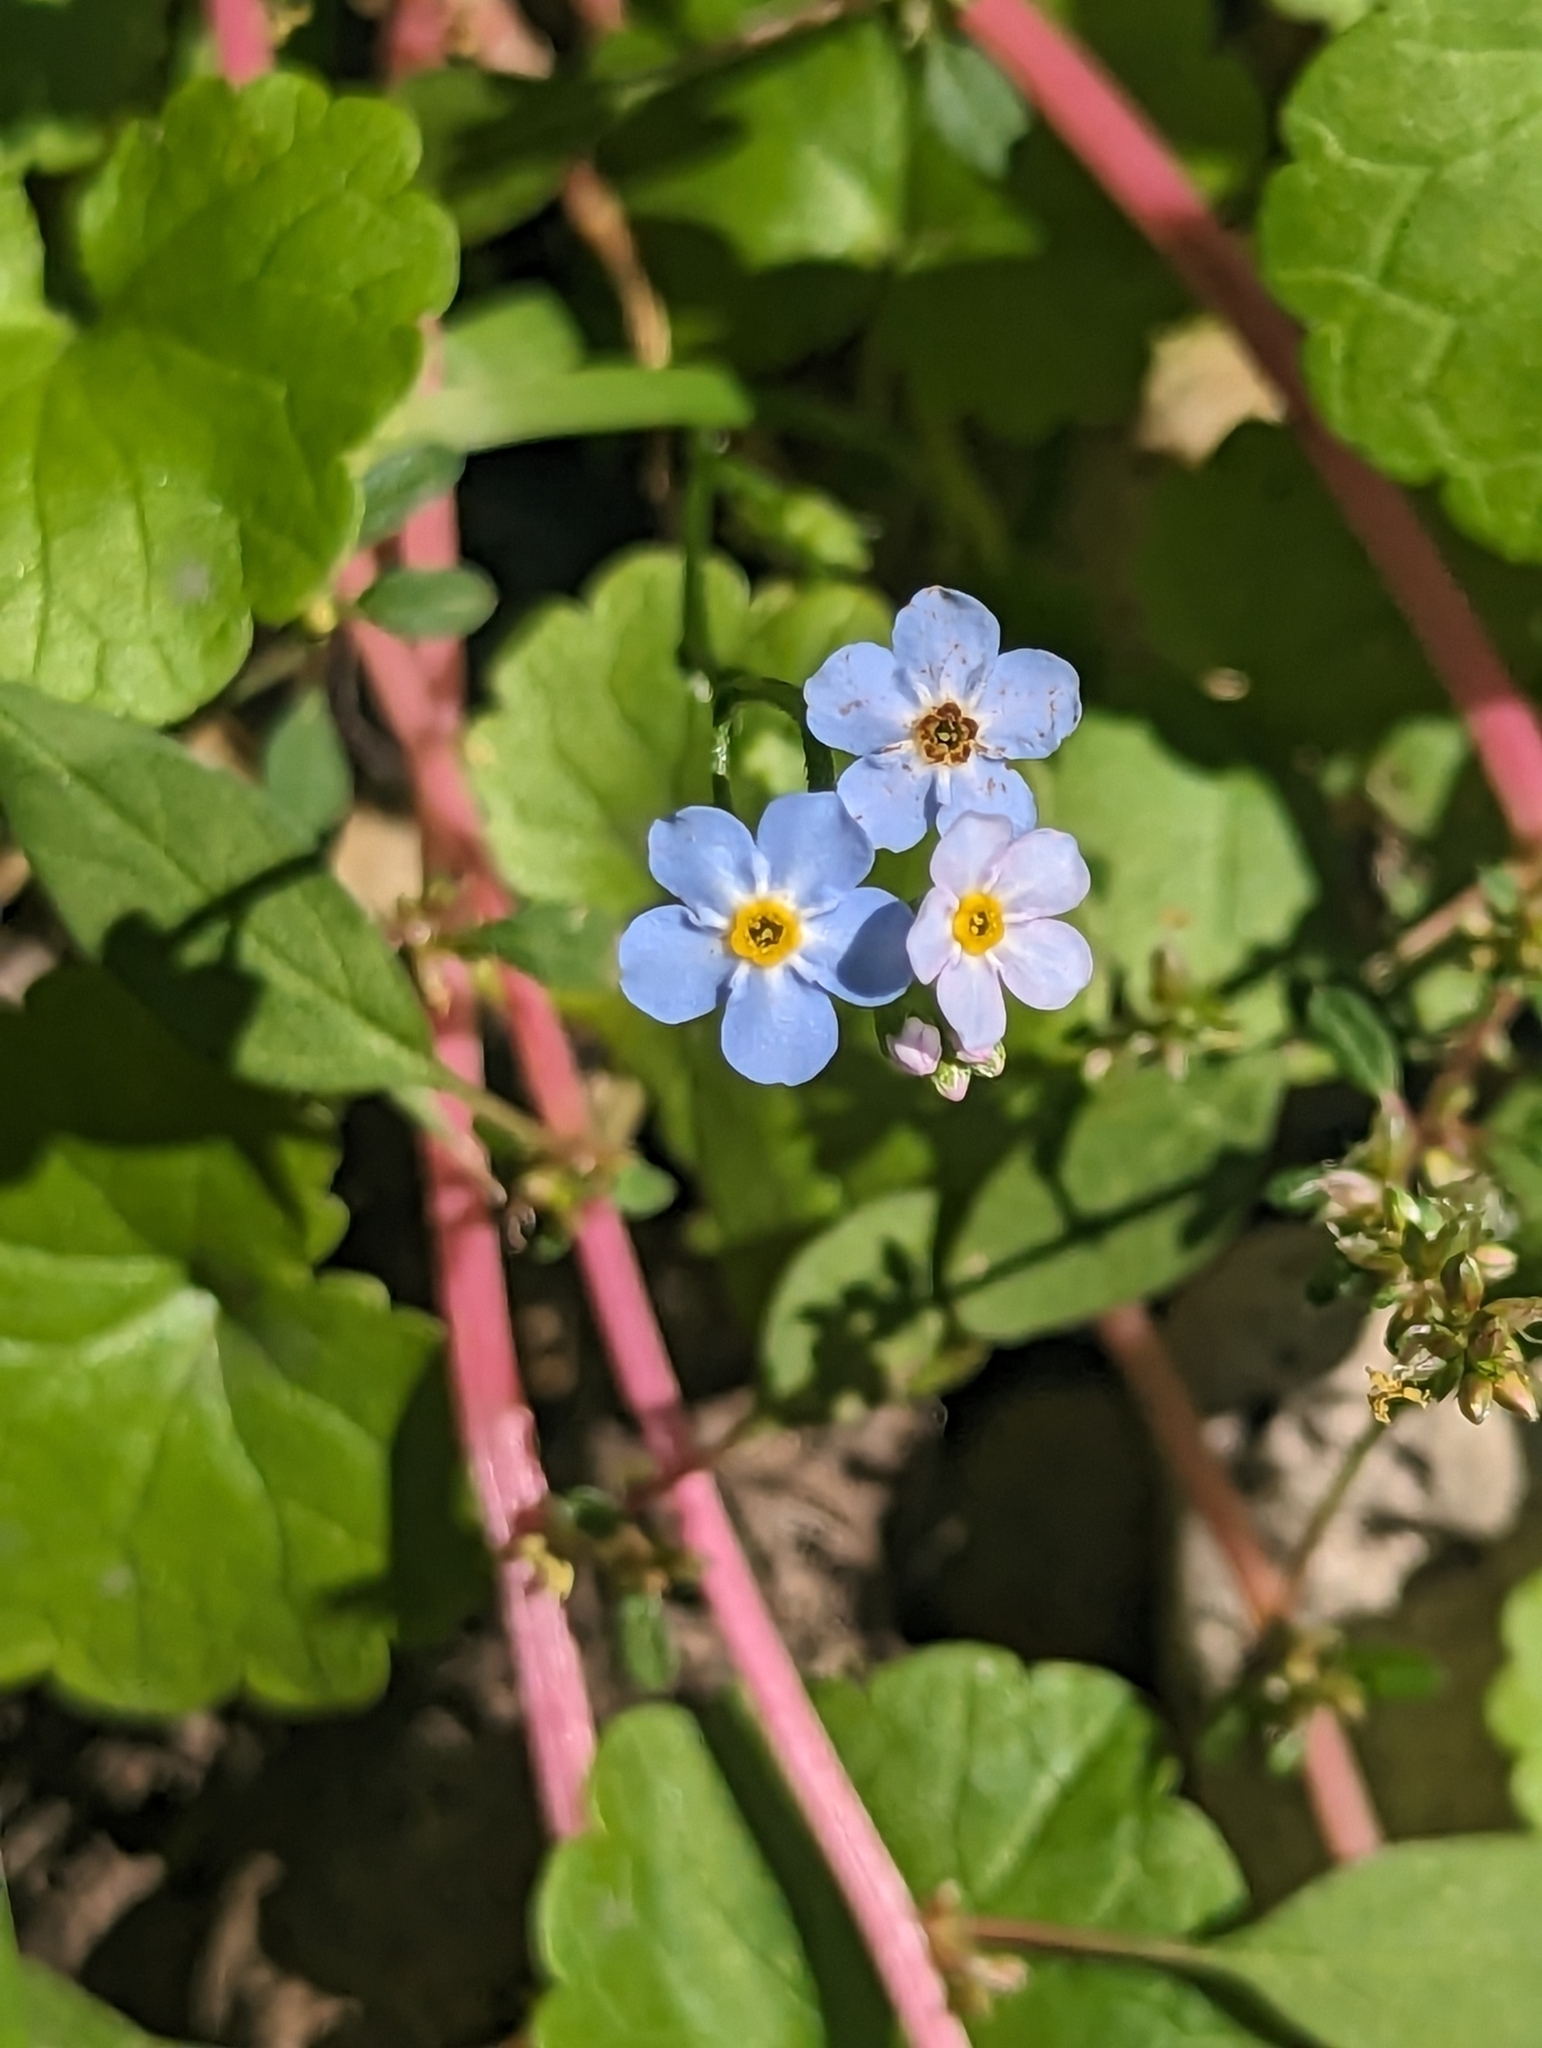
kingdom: Plantae
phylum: Tracheophyta
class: Magnoliopsida
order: Boraginales
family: Boraginaceae
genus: Myosotis
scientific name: Myosotis scorpioides
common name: Water forget-me-not
